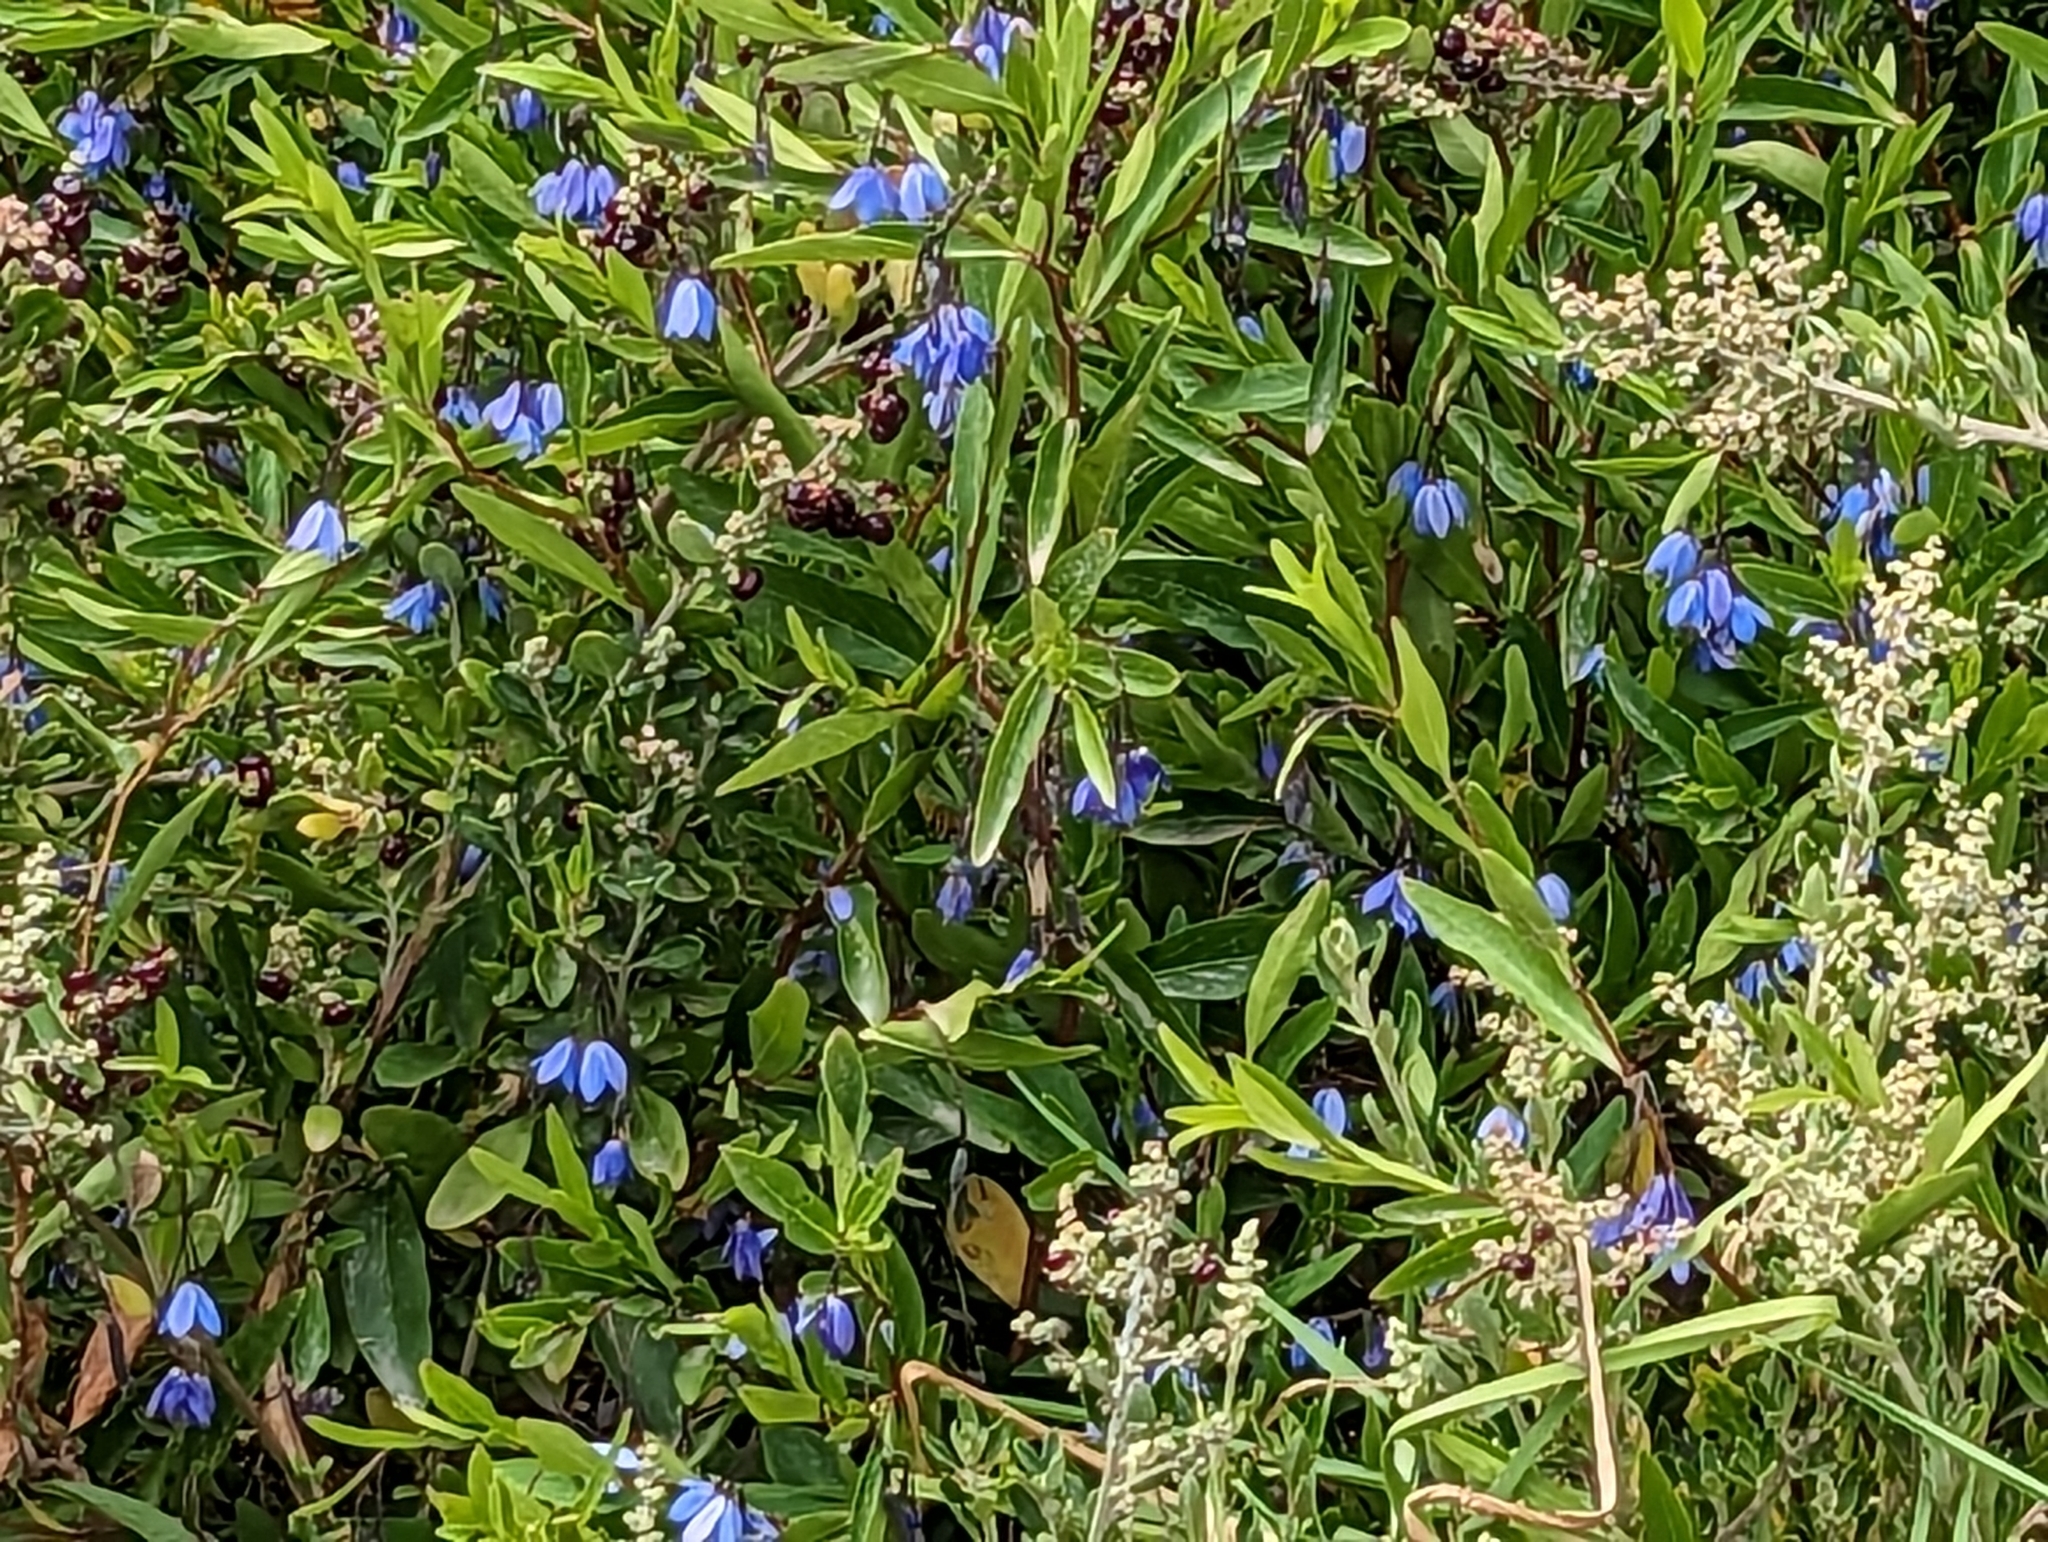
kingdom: Plantae
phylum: Tracheophyta
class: Magnoliopsida
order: Apiales
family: Pittosporaceae
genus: Billardiera
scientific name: Billardiera fusiformis
